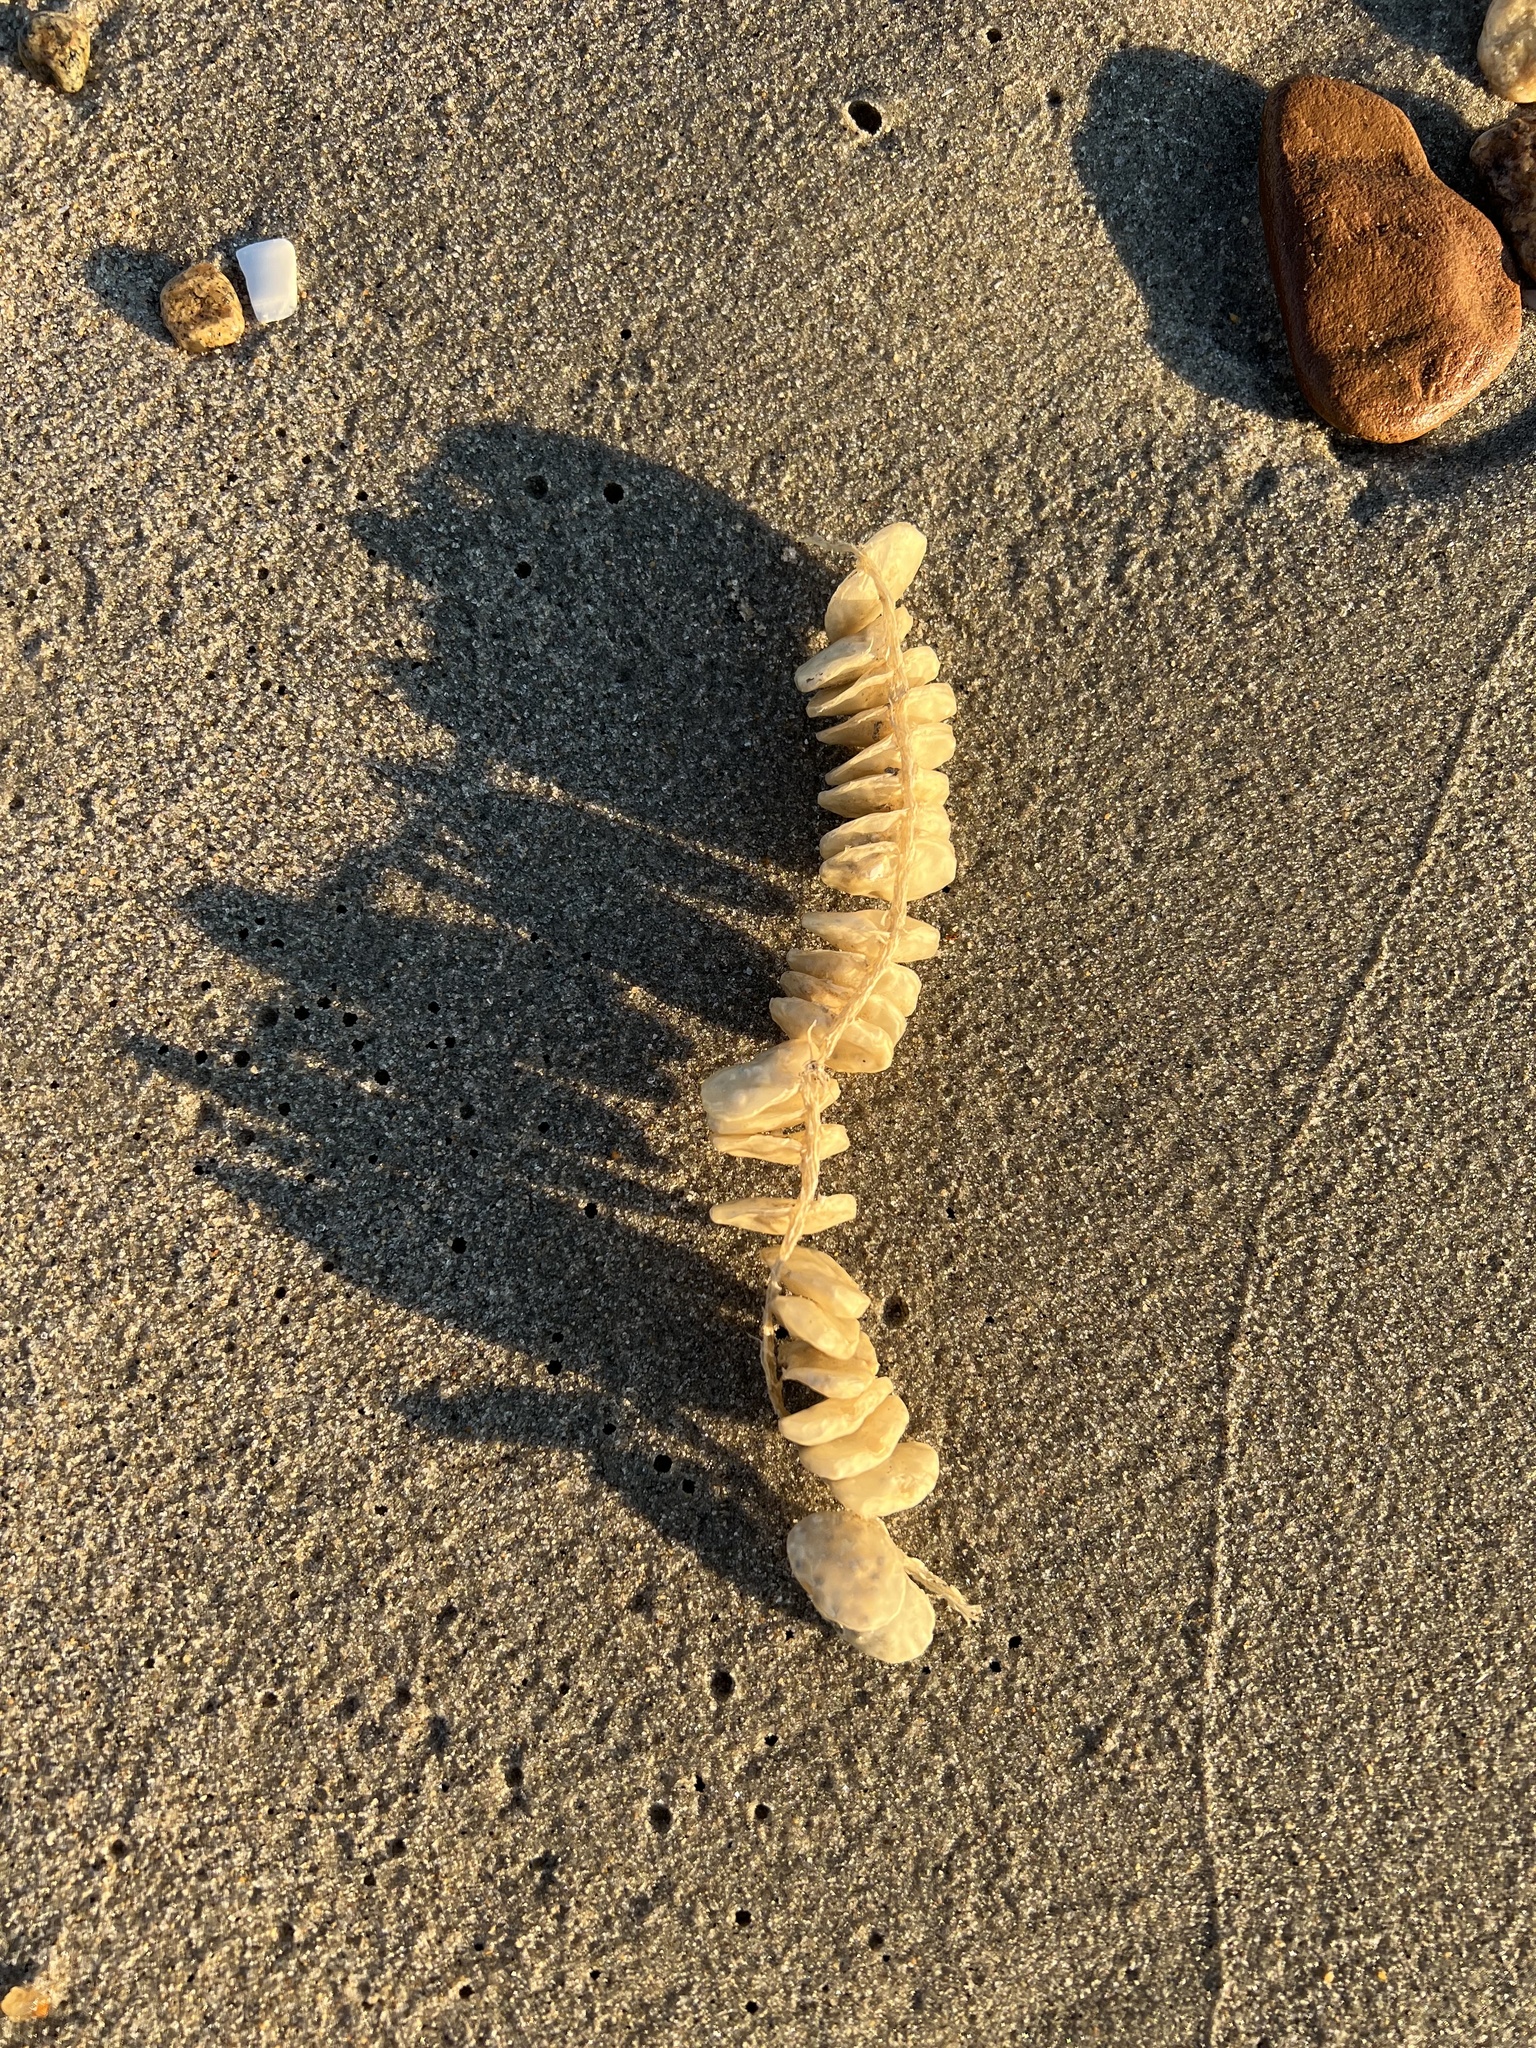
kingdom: Animalia
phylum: Mollusca
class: Gastropoda
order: Neogastropoda
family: Busyconidae
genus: Busycon
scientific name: Busycon carica
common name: Knobbed whelk
